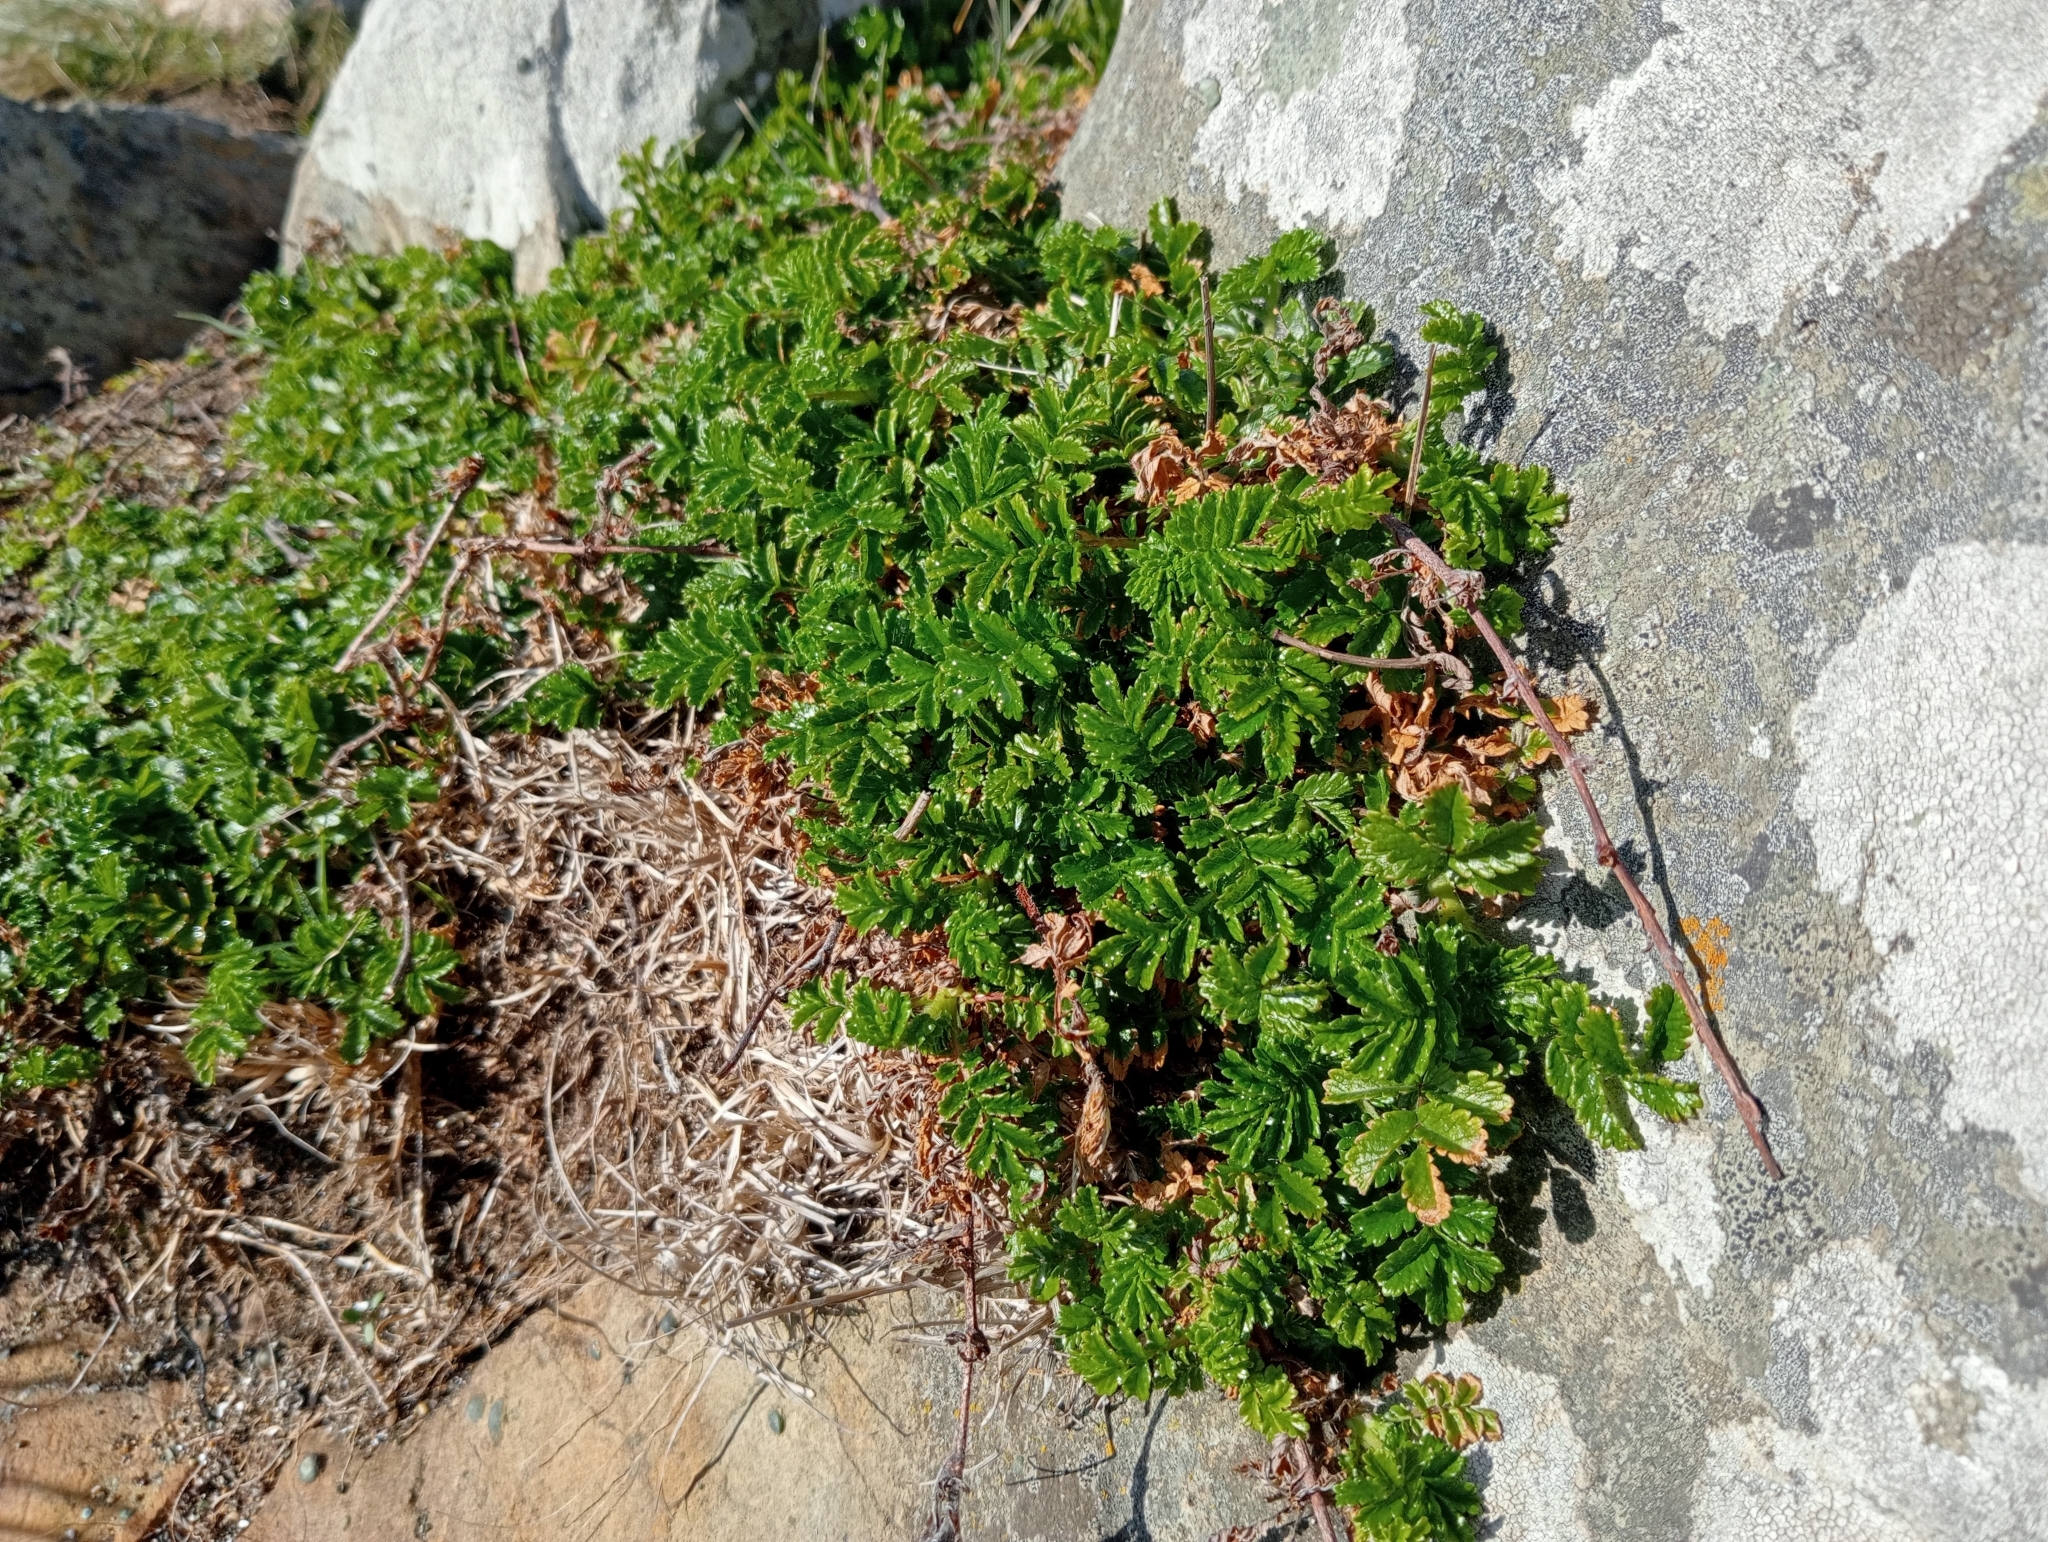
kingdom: Plantae
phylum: Tracheophyta
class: Magnoliopsida
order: Rosales
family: Rosaceae
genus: Acaena
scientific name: Acaena novae-zelandiae
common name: Pirri-pirri-bur
